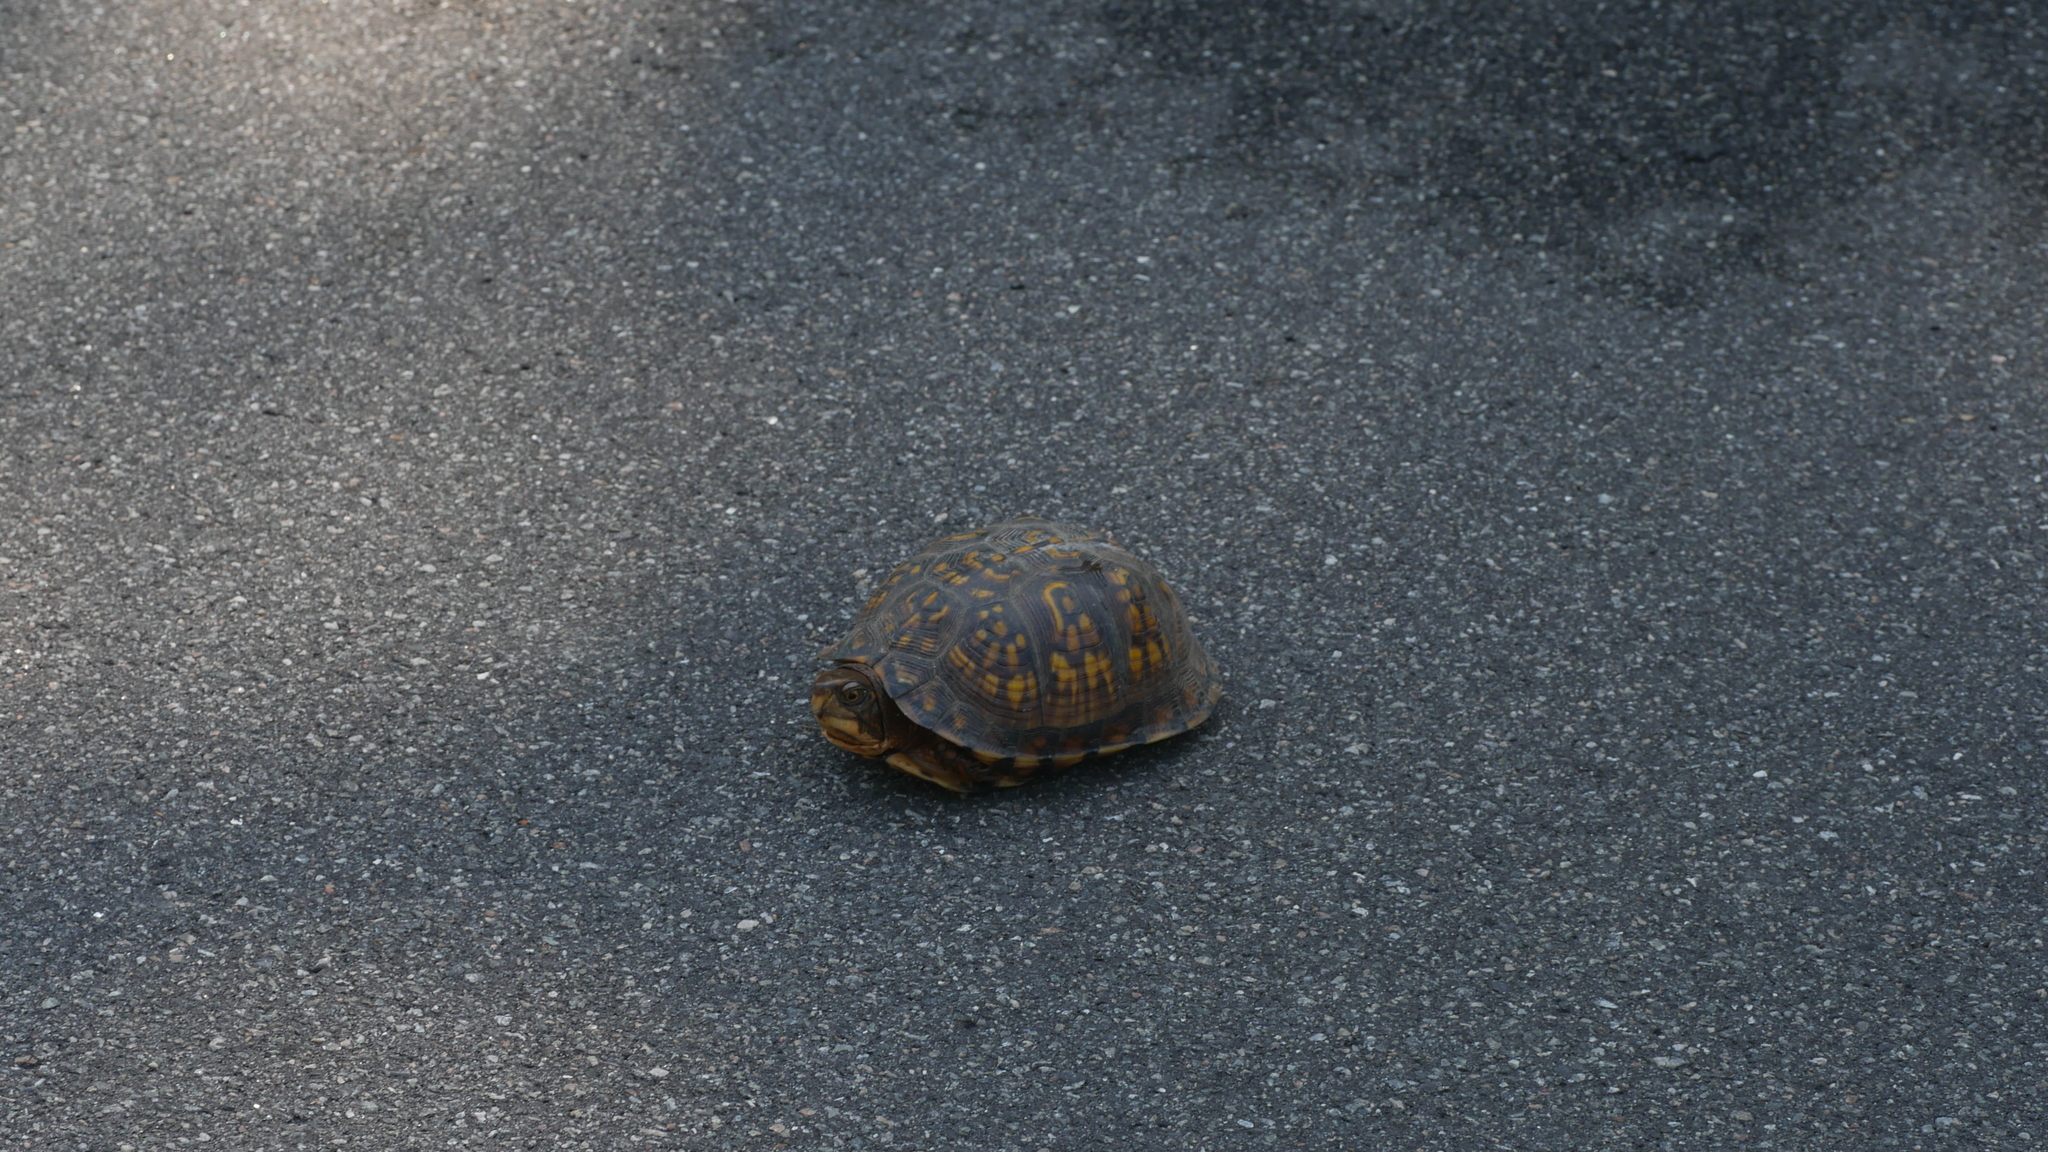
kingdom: Animalia
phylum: Chordata
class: Testudines
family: Emydidae
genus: Terrapene
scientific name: Terrapene carolina
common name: Common box turtle
